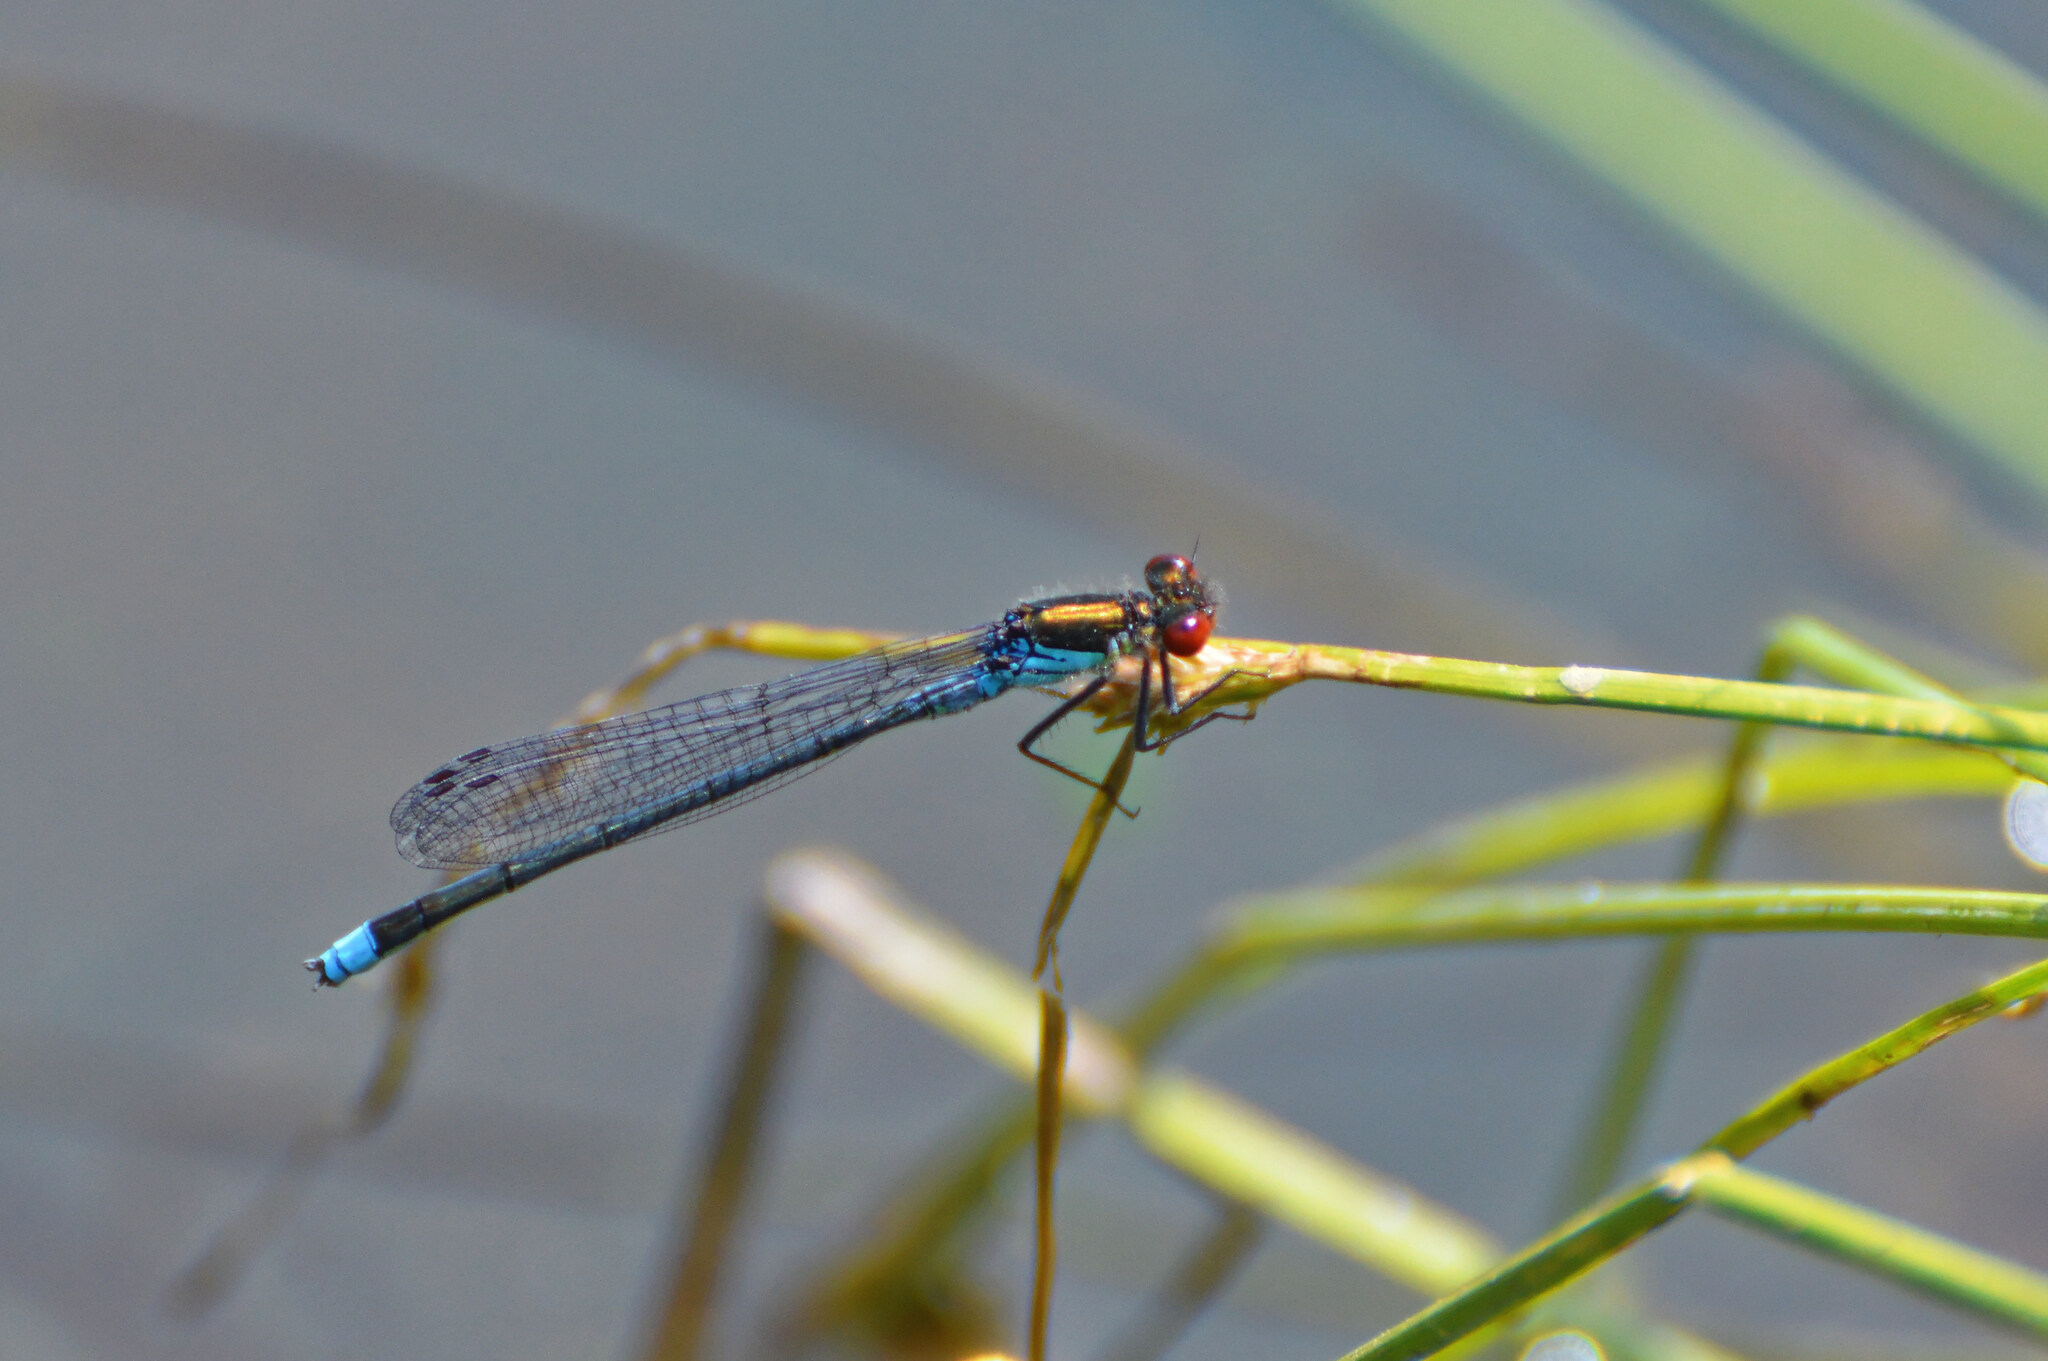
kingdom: Animalia
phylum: Arthropoda
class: Insecta
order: Odonata
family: Coenagrionidae
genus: Erythromma
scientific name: Erythromma najas
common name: Red-eyed damselfly
